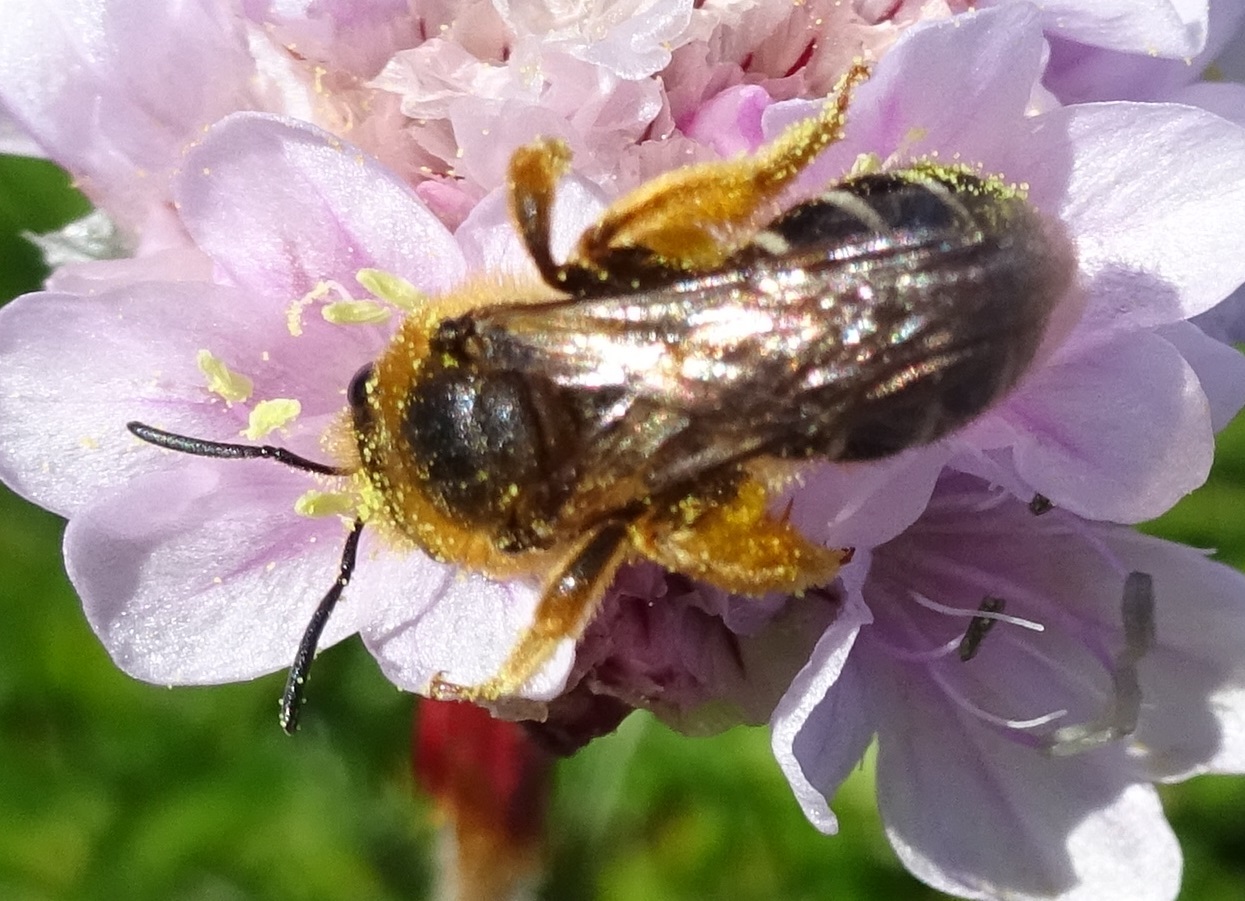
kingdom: Animalia
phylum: Arthropoda
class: Insecta
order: Hymenoptera
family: Halictidae
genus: Halictus
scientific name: Halictus rubicundus
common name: Orange-legged furrow bee
